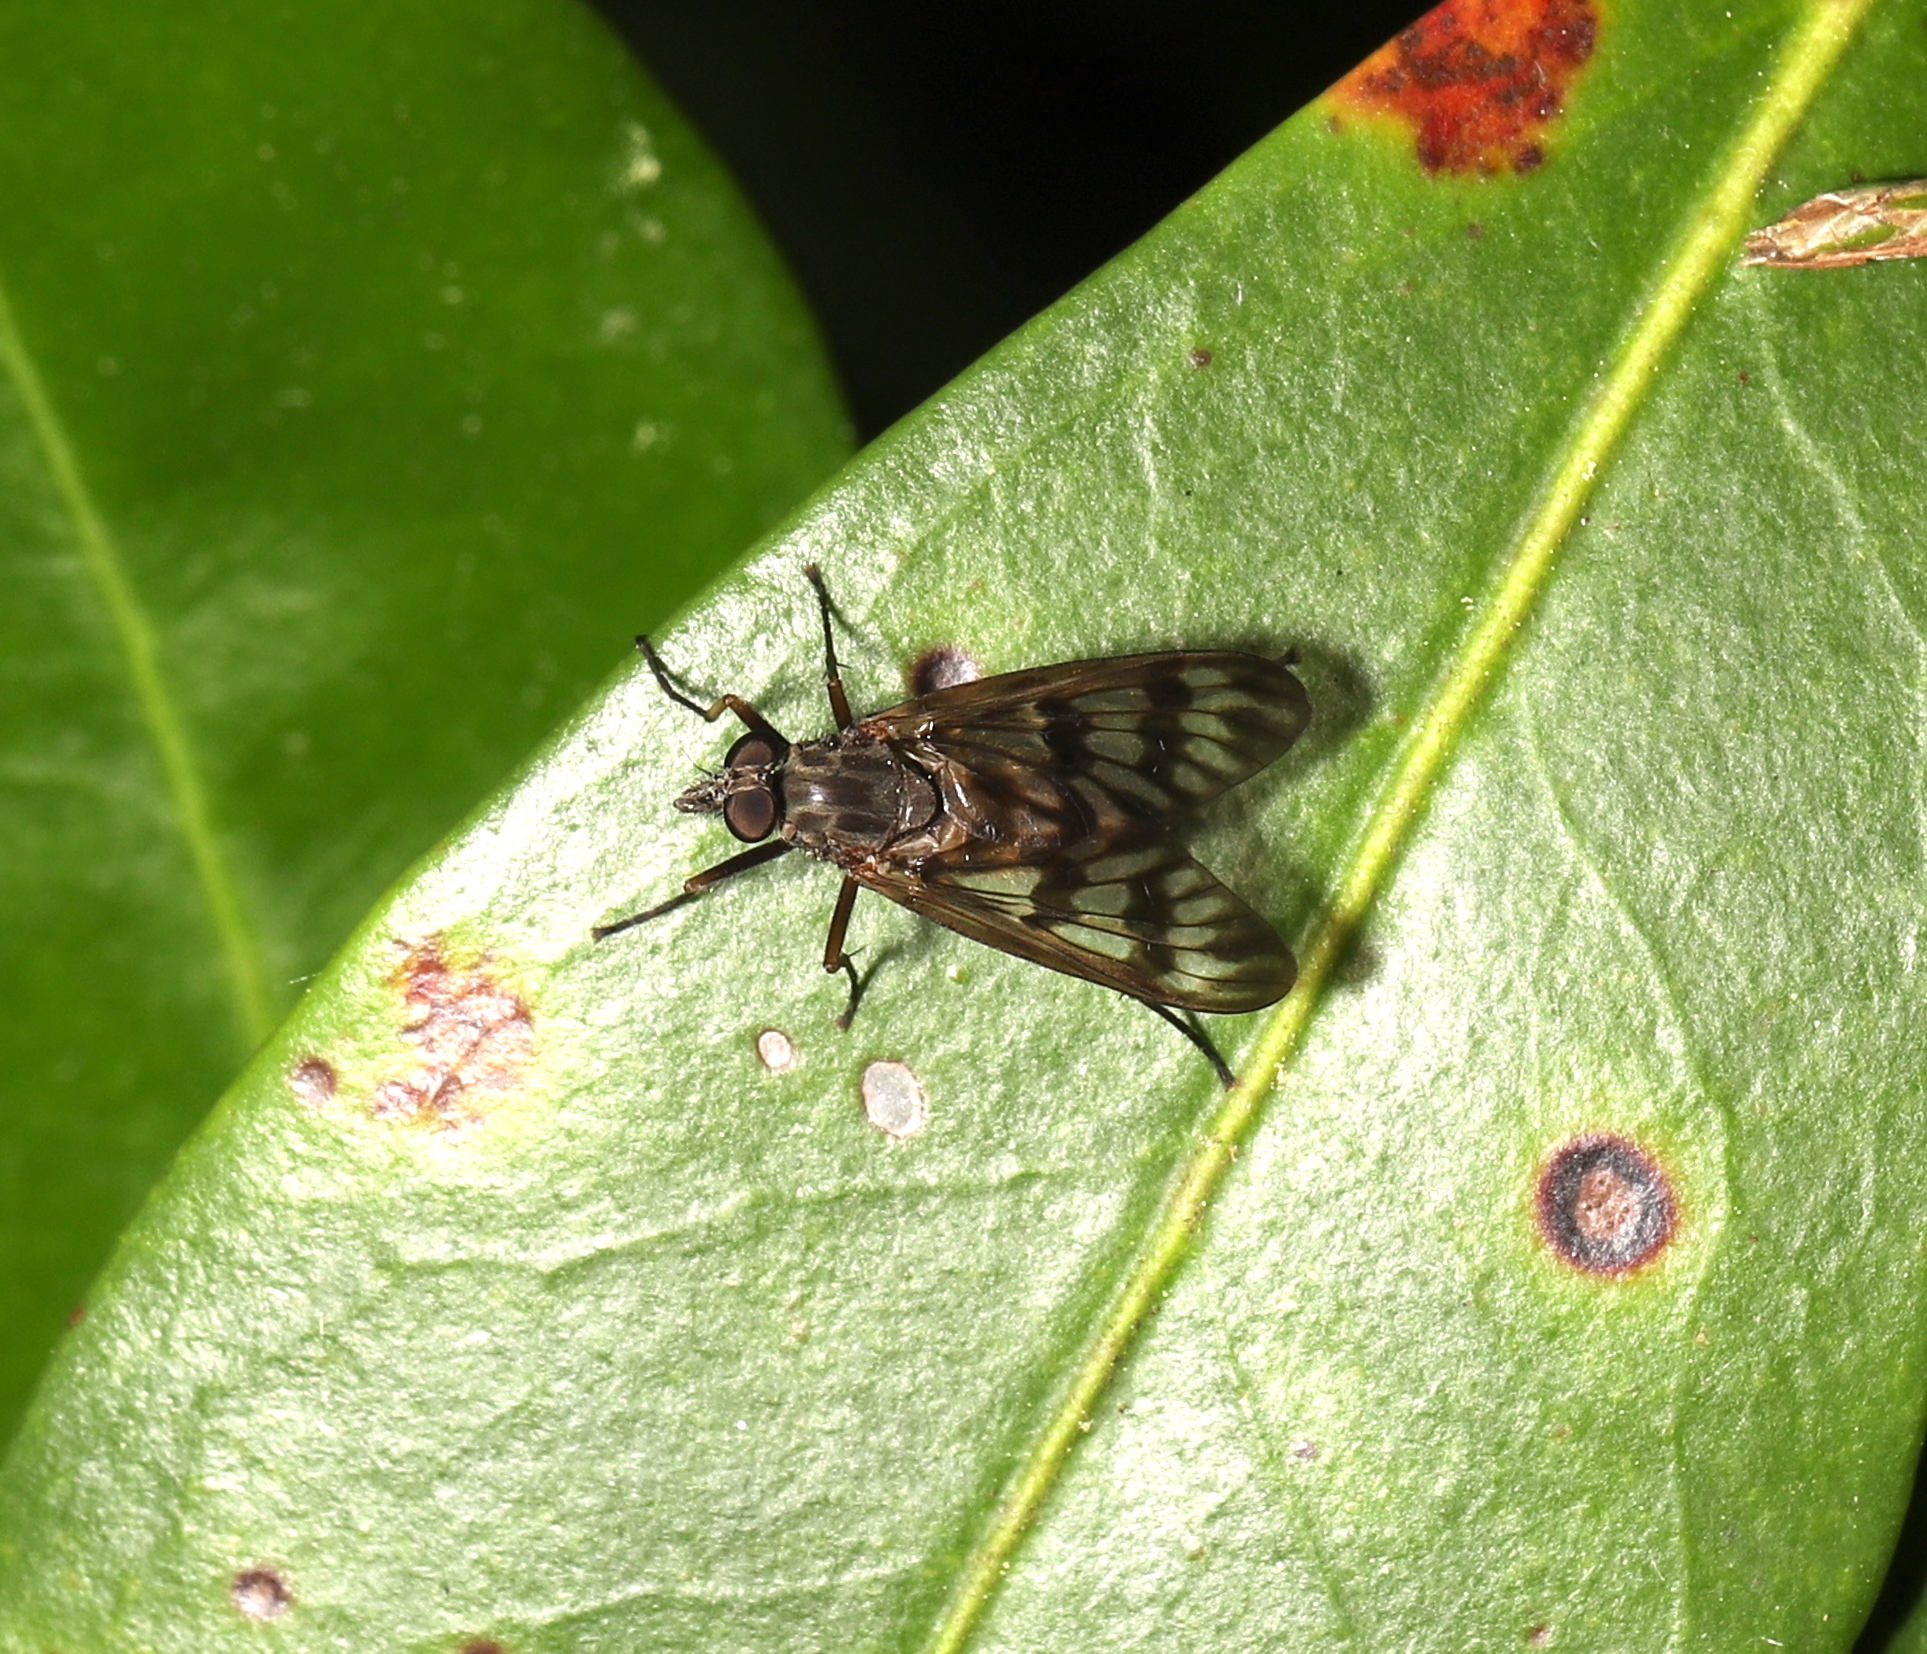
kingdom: Animalia
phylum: Arthropoda
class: Insecta
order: Diptera
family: Rhagionidae
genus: Rhagio
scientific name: Rhagio mystaceus
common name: Common snipe fly
